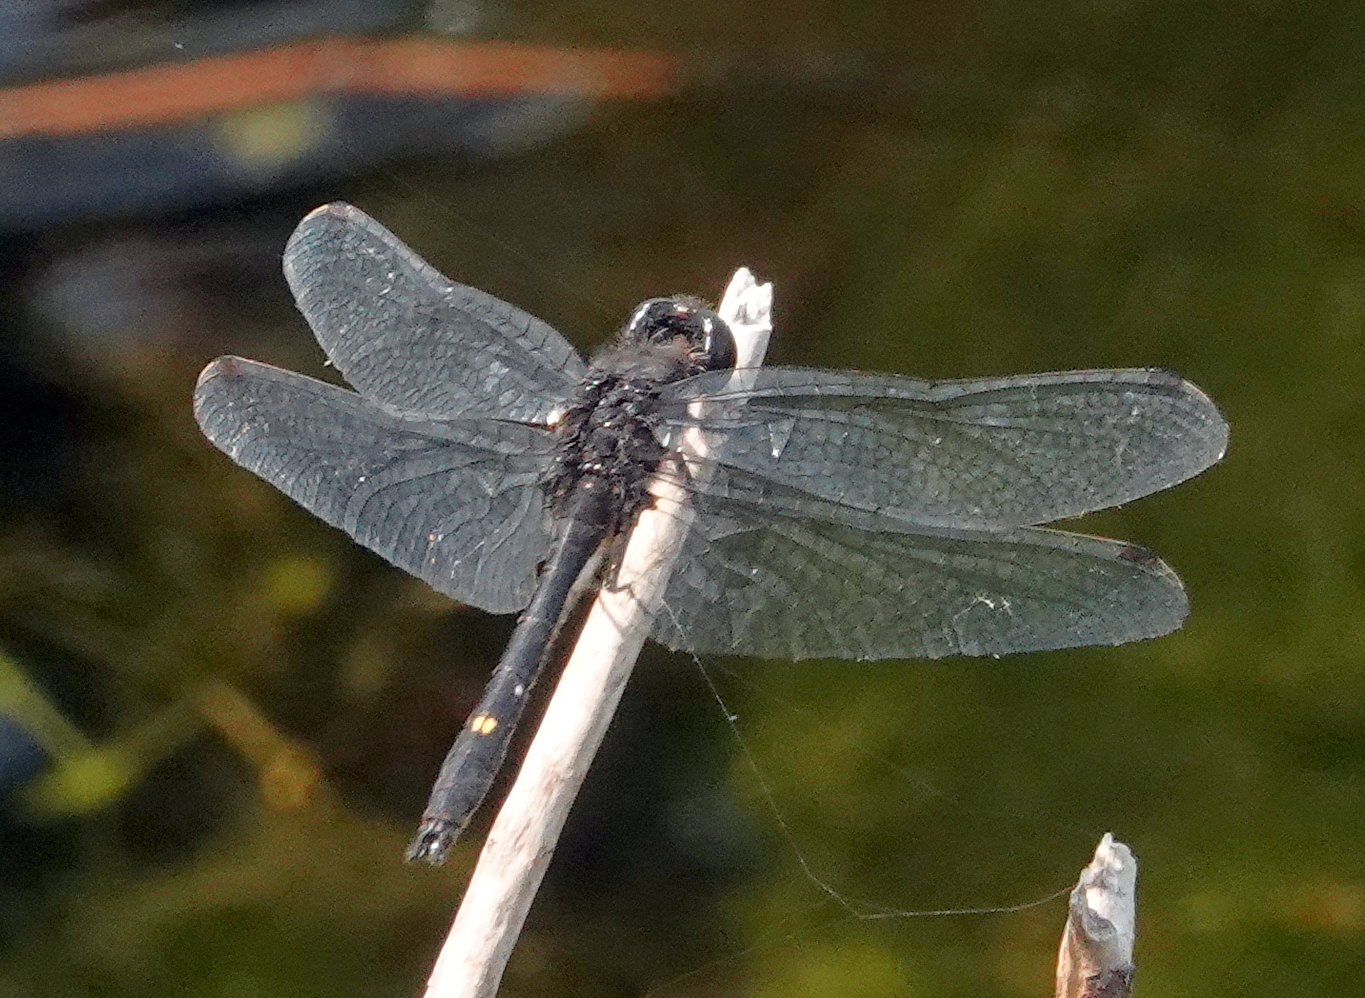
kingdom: Animalia
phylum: Arthropoda
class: Insecta
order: Odonata
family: Libellulidae
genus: Leucorrhinia
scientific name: Leucorrhinia intacta
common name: Dot-tailed whiteface
